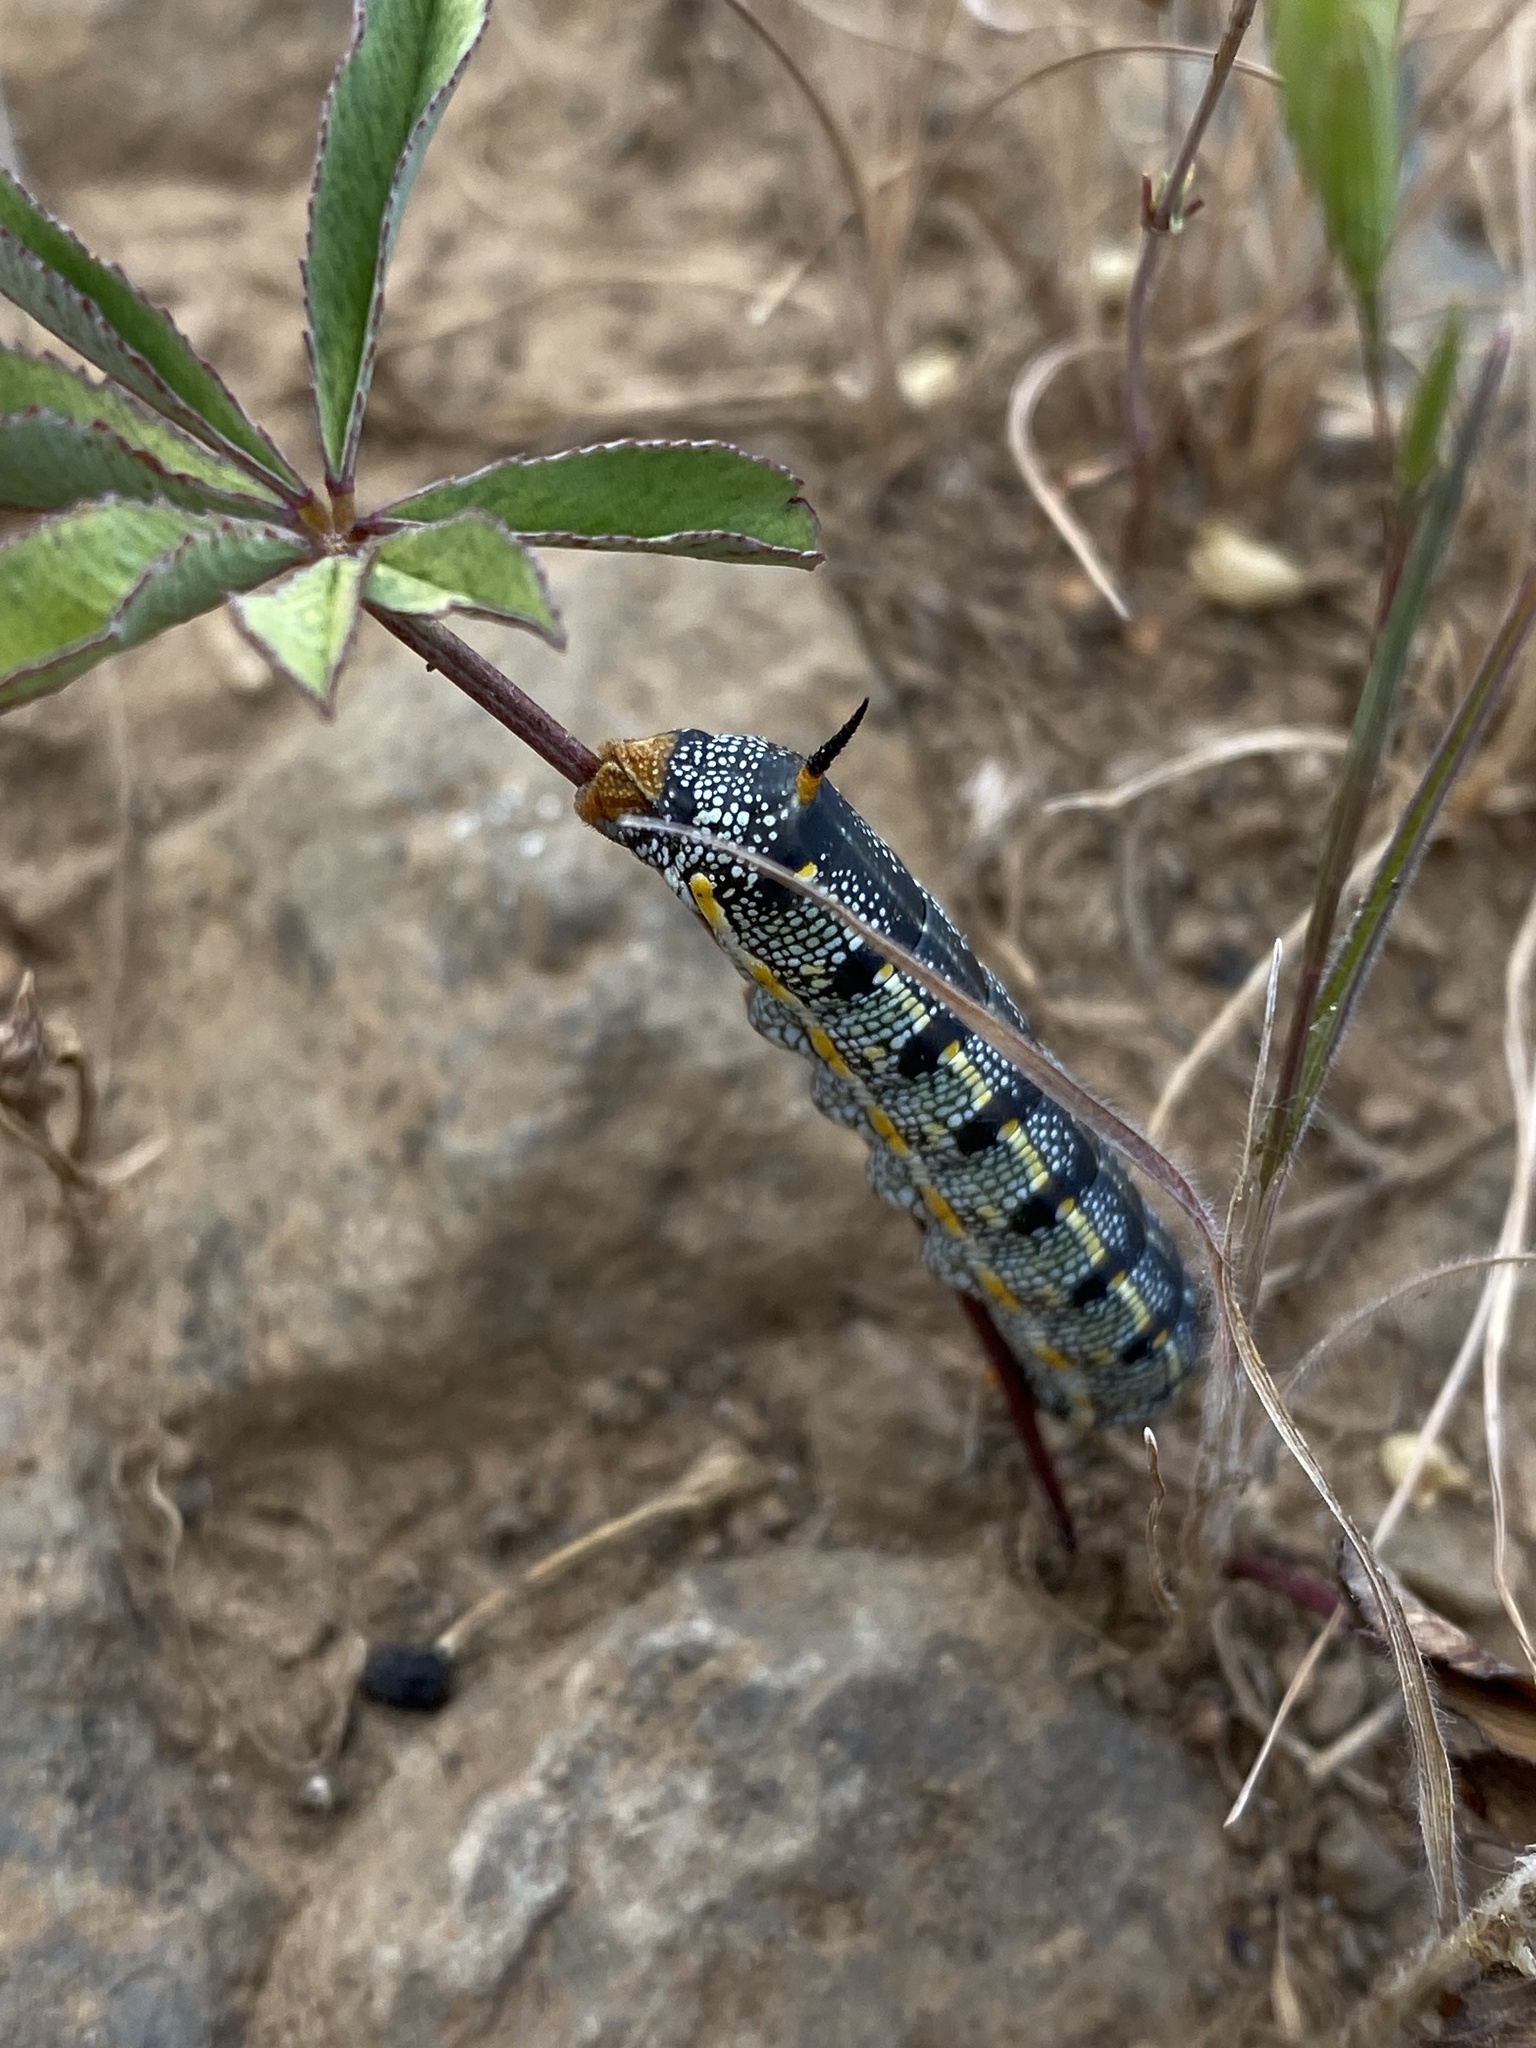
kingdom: Animalia
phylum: Arthropoda
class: Insecta
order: Lepidoptera
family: Sphingidae
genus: Hyles
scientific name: Hyles lineata
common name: White-lined sphinx
